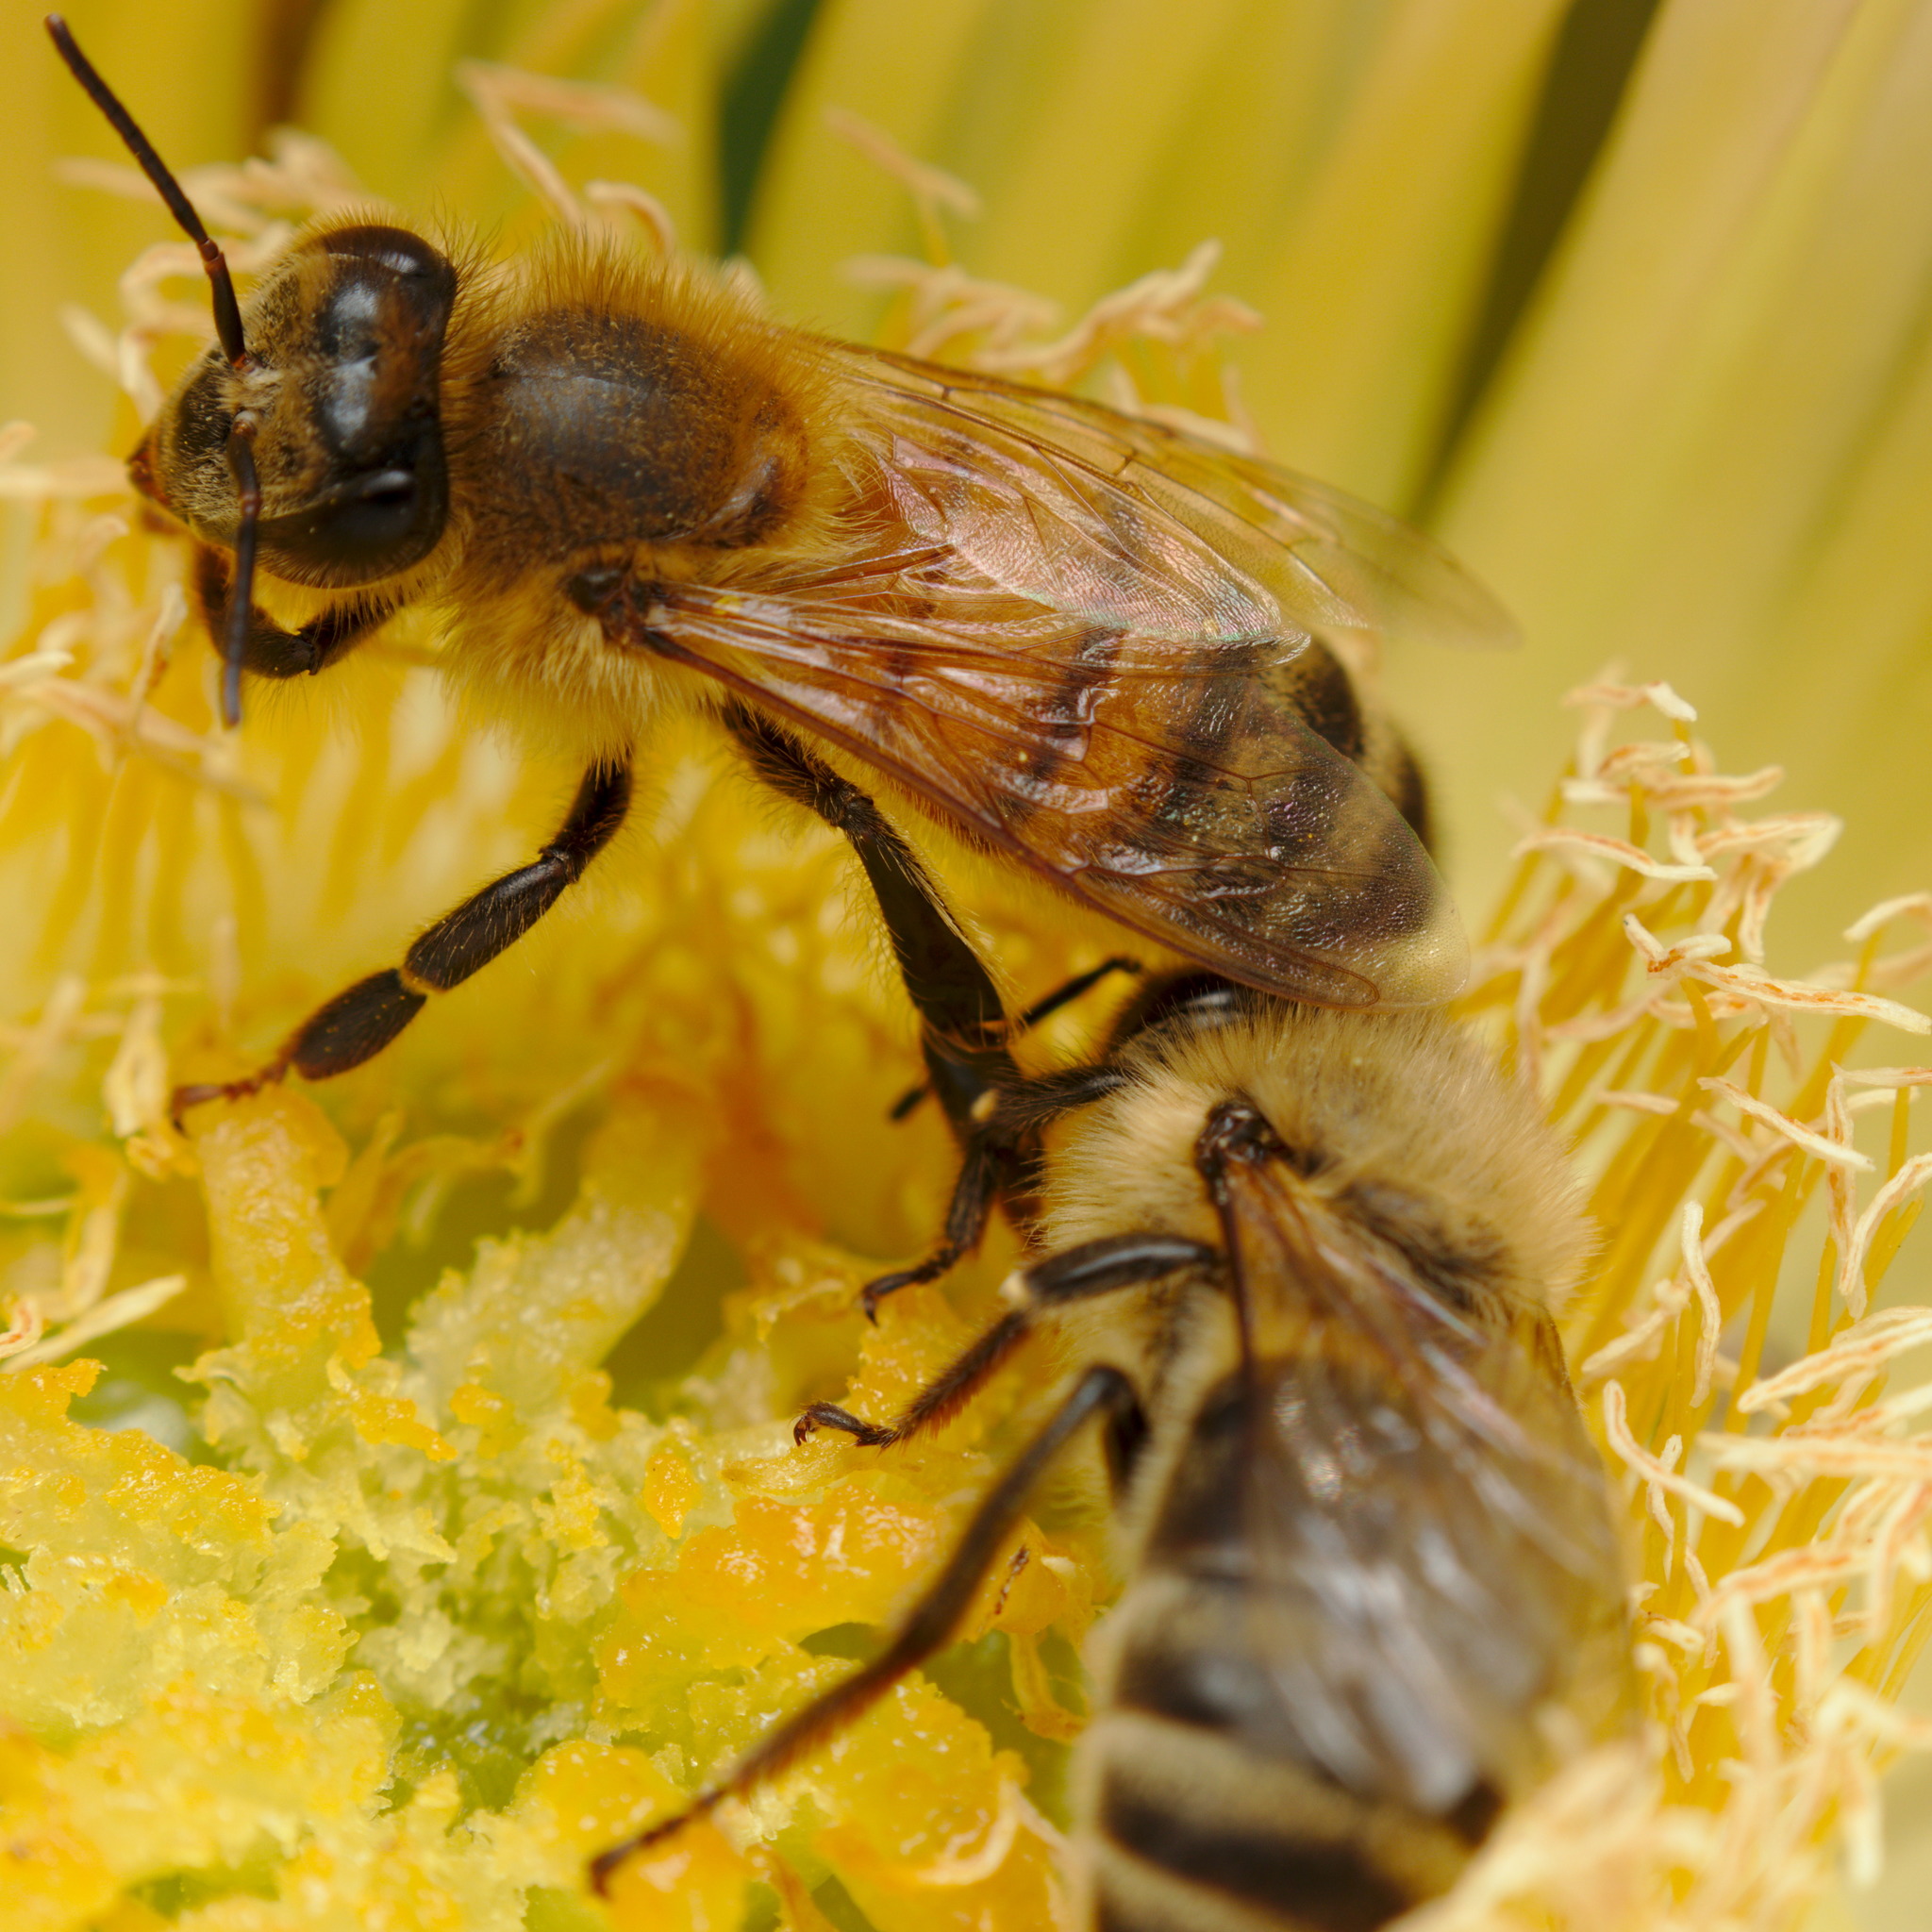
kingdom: Animalia
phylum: Arthropoda
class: Insecta
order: Hymenoptera
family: Apidae
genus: Apis
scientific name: Apis mellifera
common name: Honey bee
